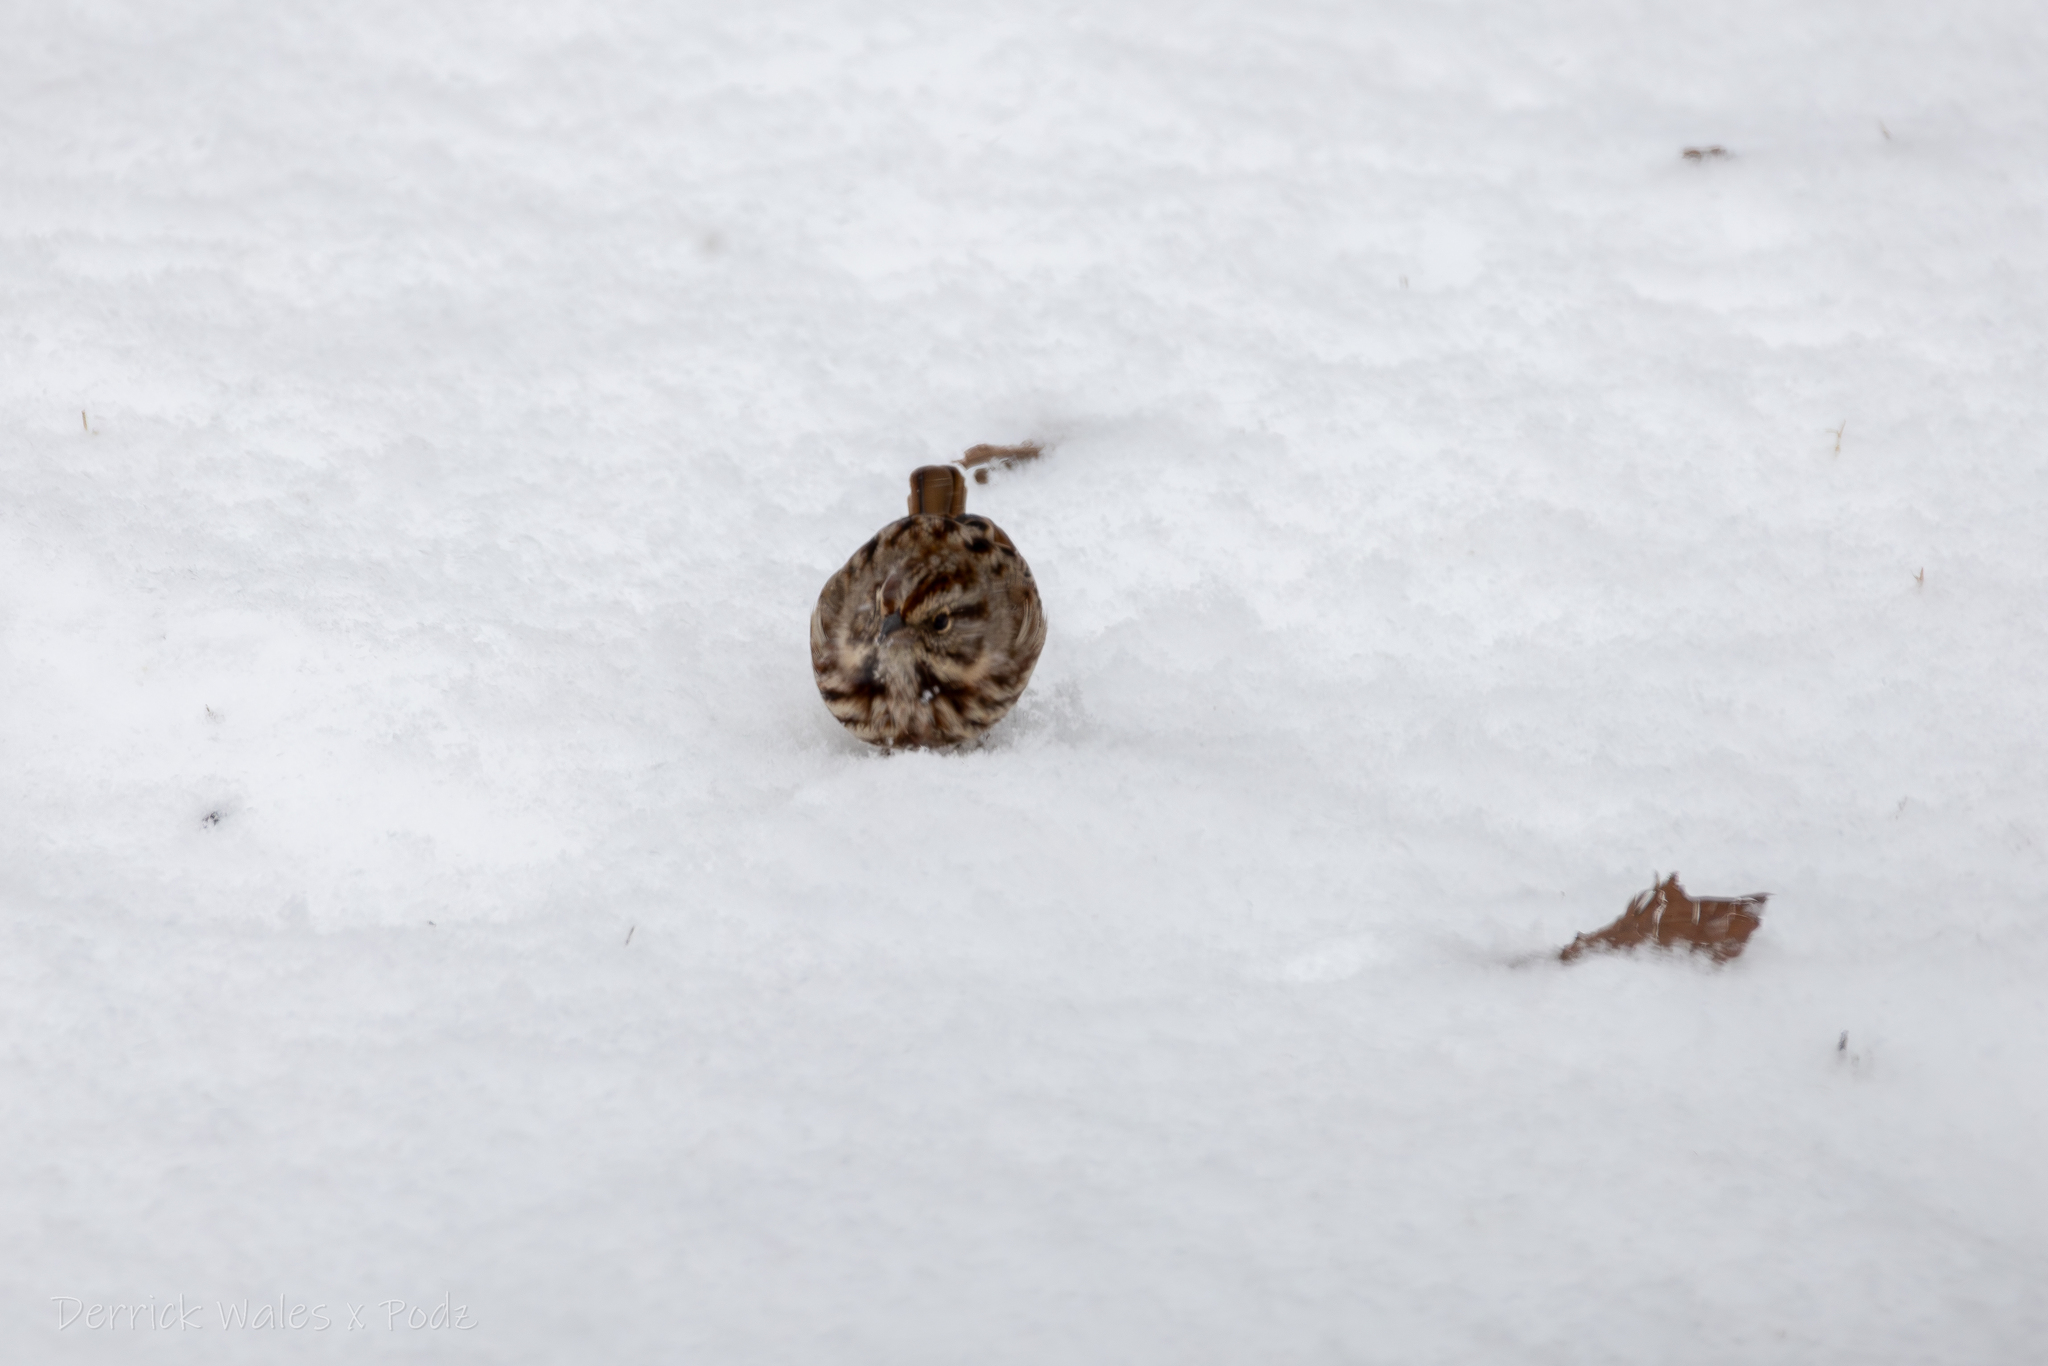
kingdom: Animalia
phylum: Chordata
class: Aves
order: Passeriformes
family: Passerellidae
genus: Melospiza
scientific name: Melospiza melodia
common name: Song sparrow
